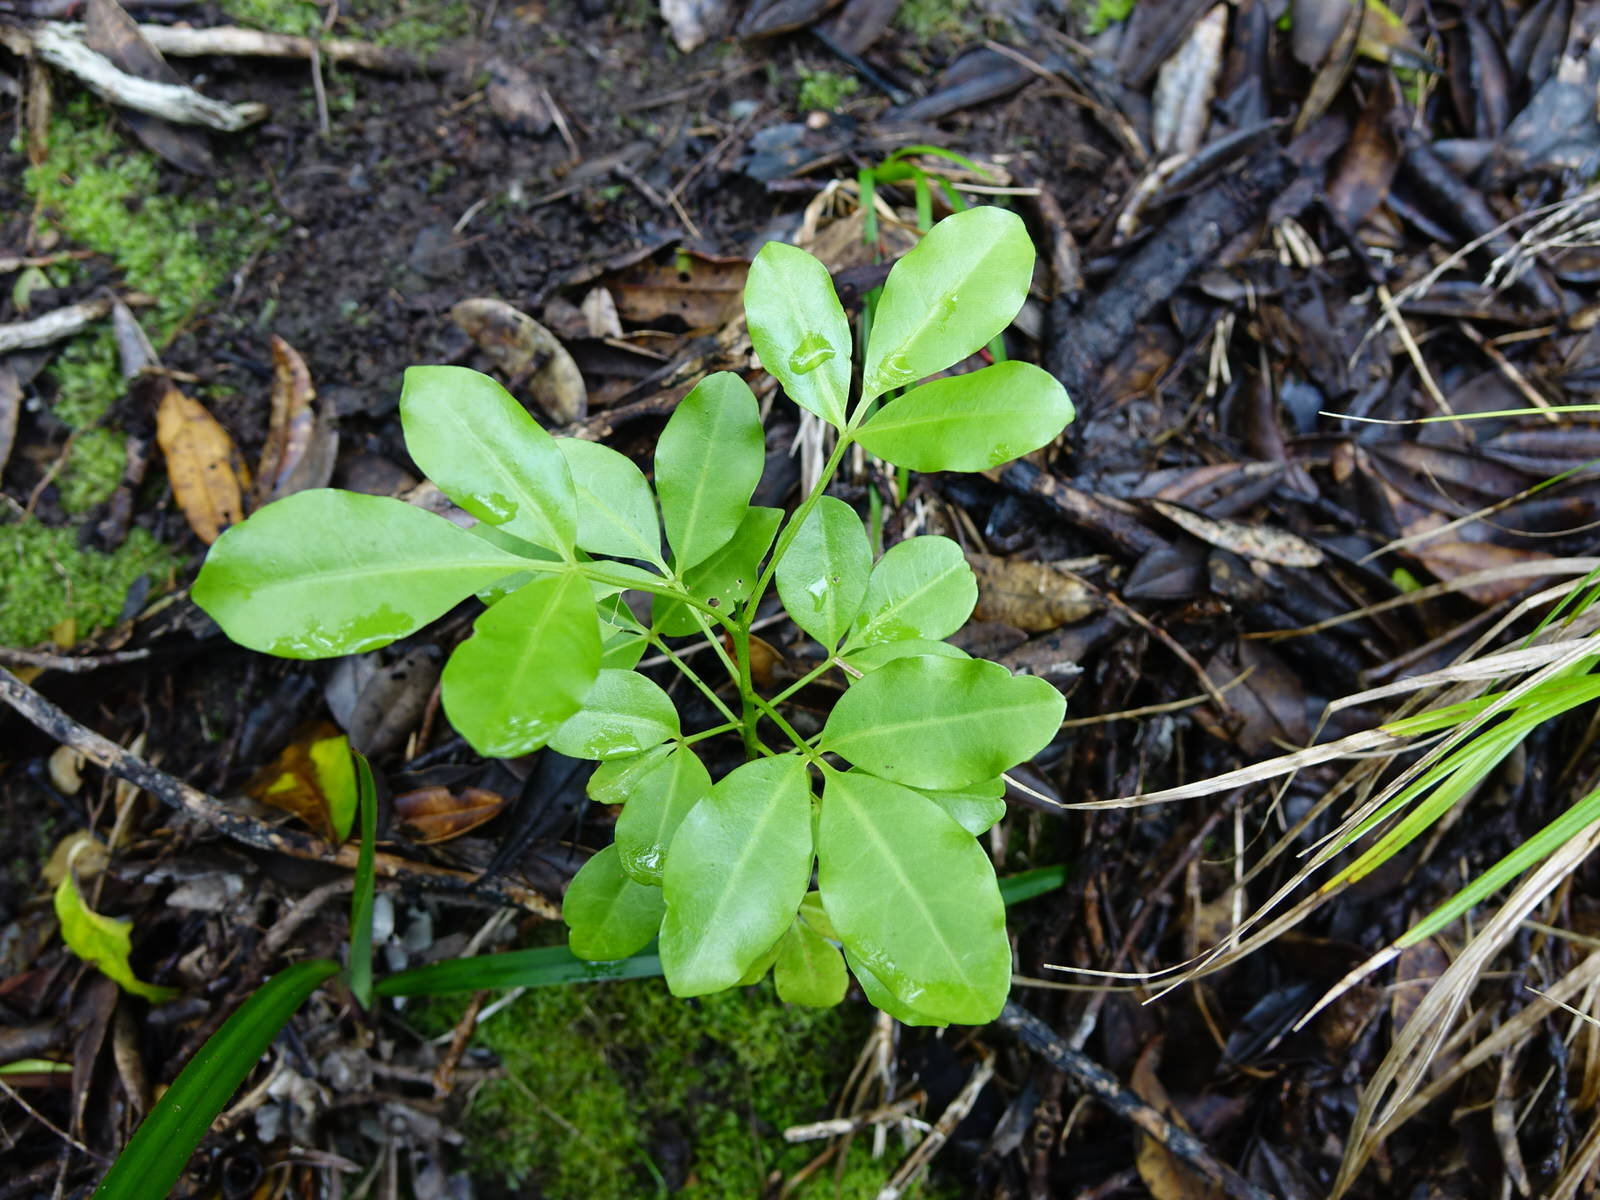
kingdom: Plantae
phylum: Tracheophyta
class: Magnoliopsida
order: Sapindales
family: Rutaceae
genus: Melicope
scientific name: Melicope ternata
